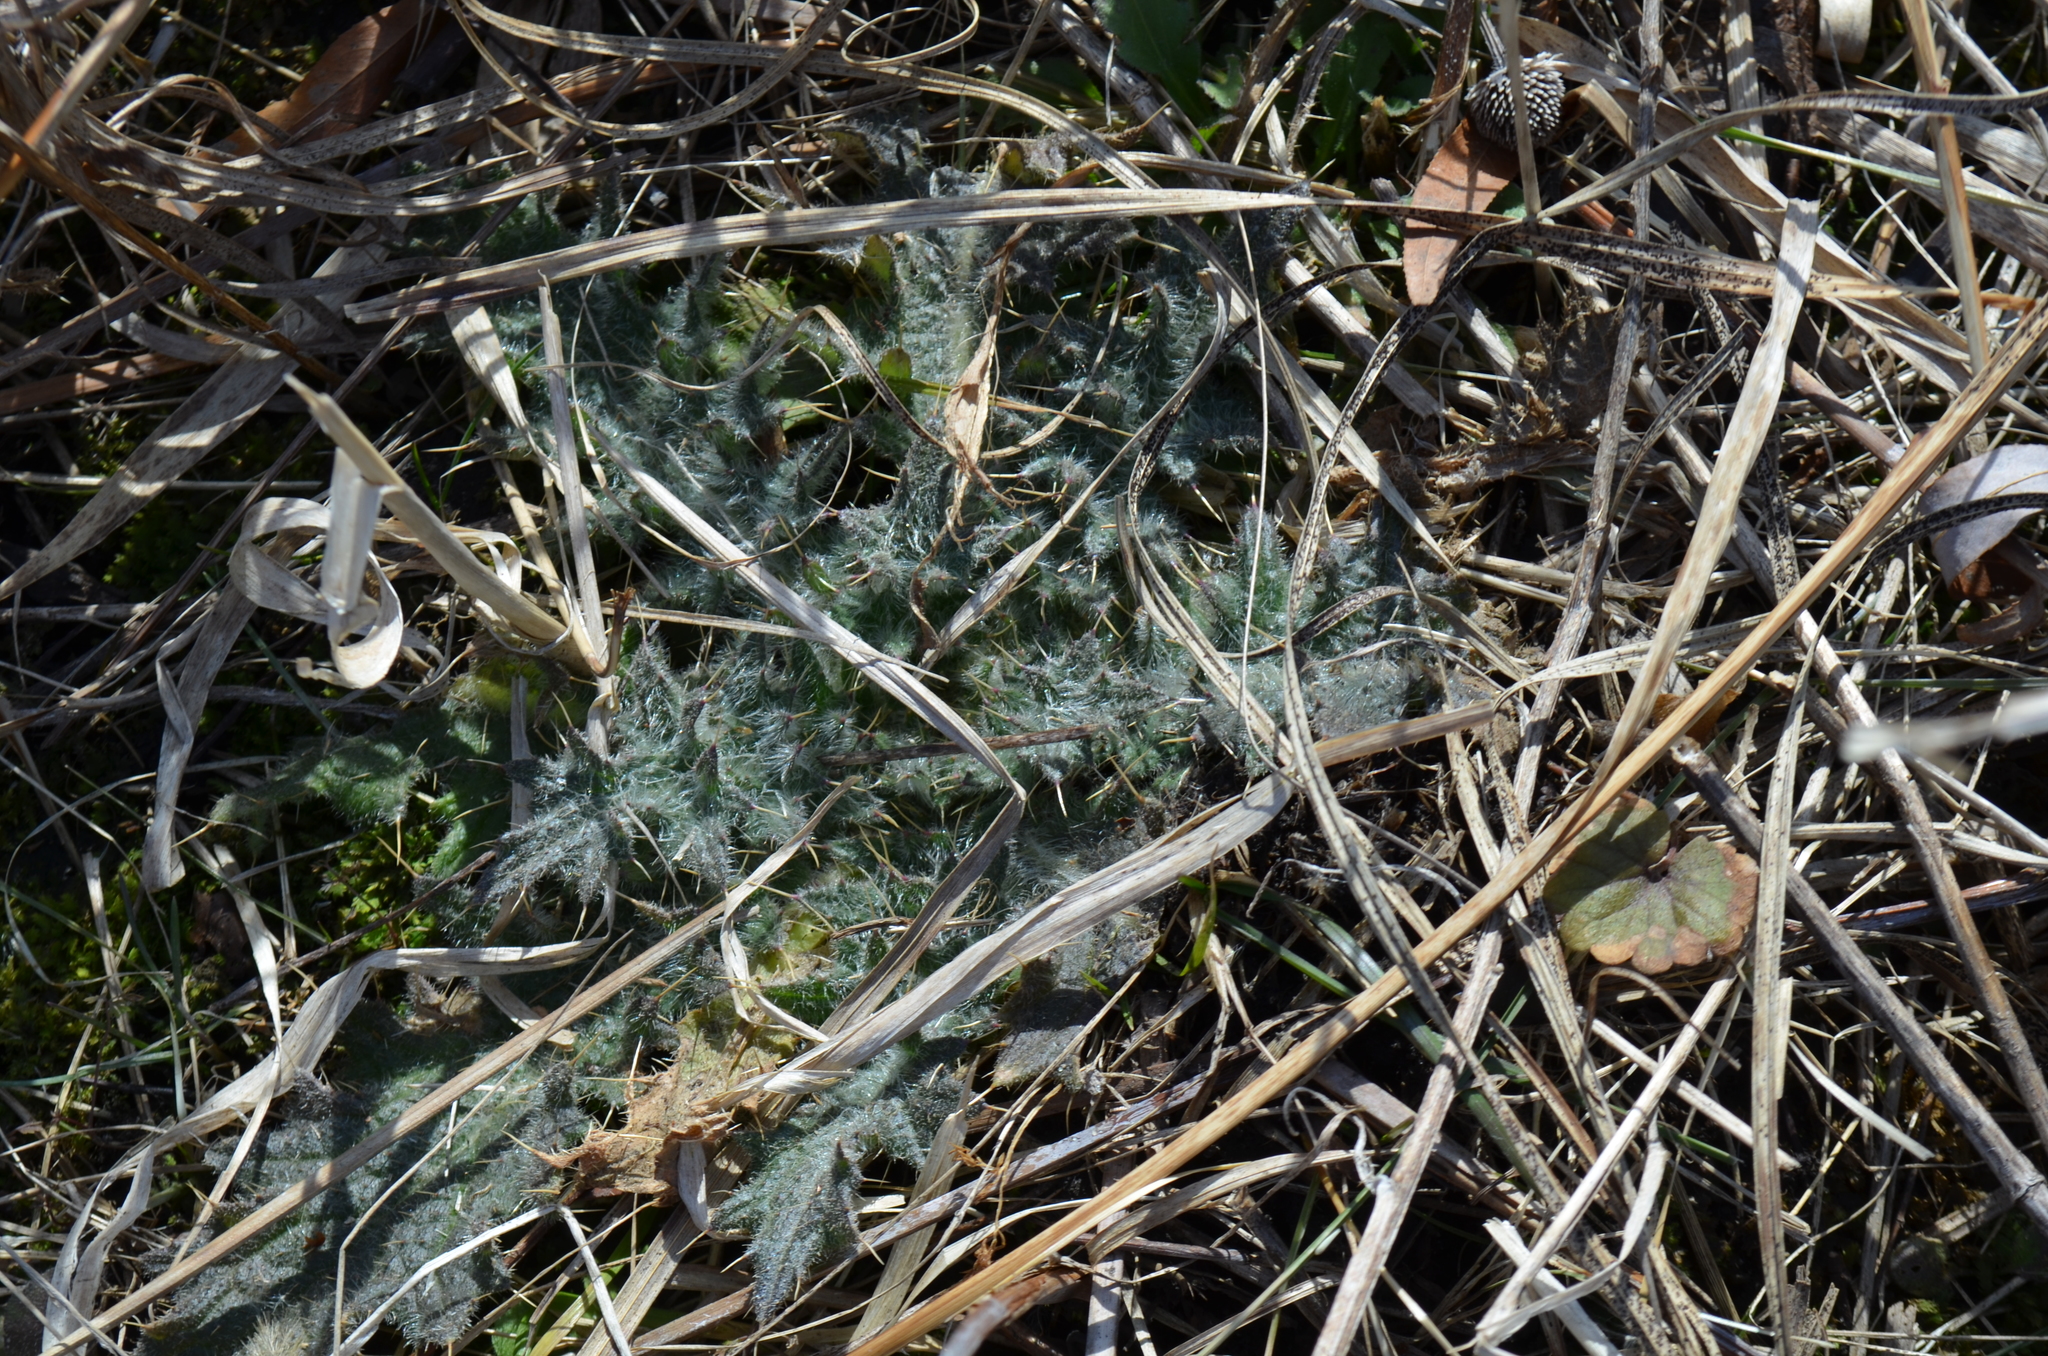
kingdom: Plantae
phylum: Tracheophyta
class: Magnoliopsida
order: Asterales
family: Asteraceae
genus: Cirsium
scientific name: Cirsium vulgare
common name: Bull thistle
